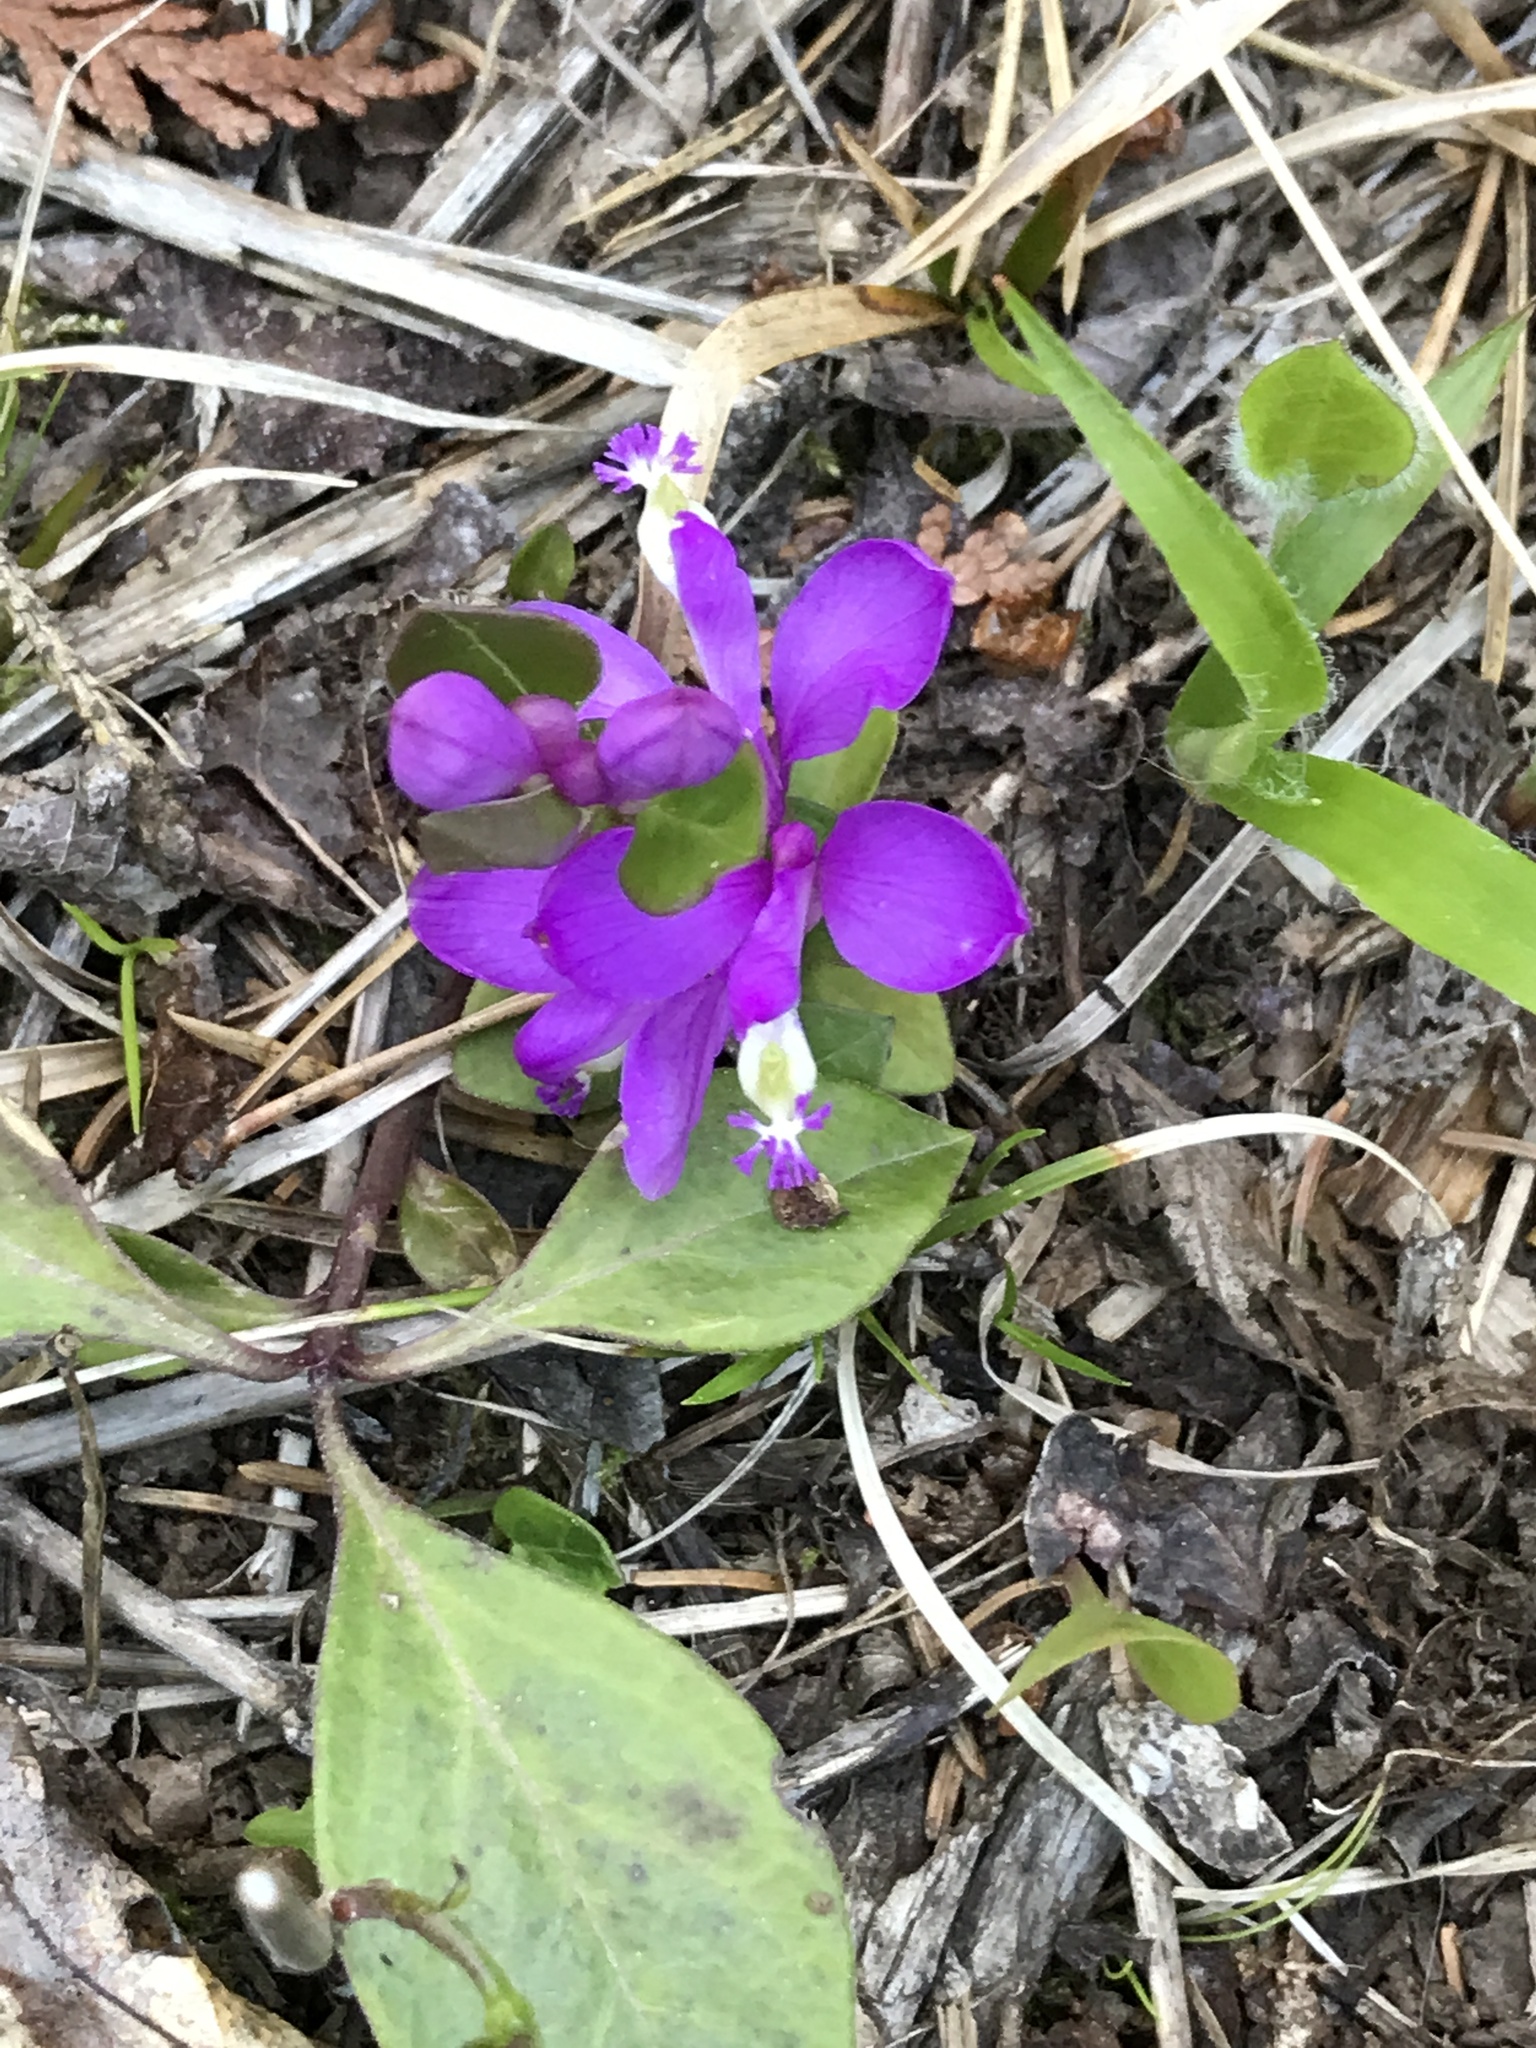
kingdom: Plantae
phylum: Tracheophyta
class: Magnoliopsida
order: Fabales
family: Polygalaceae
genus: Polygaloides
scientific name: Polygaloides paucifolia
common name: Bird-on-the-wing
